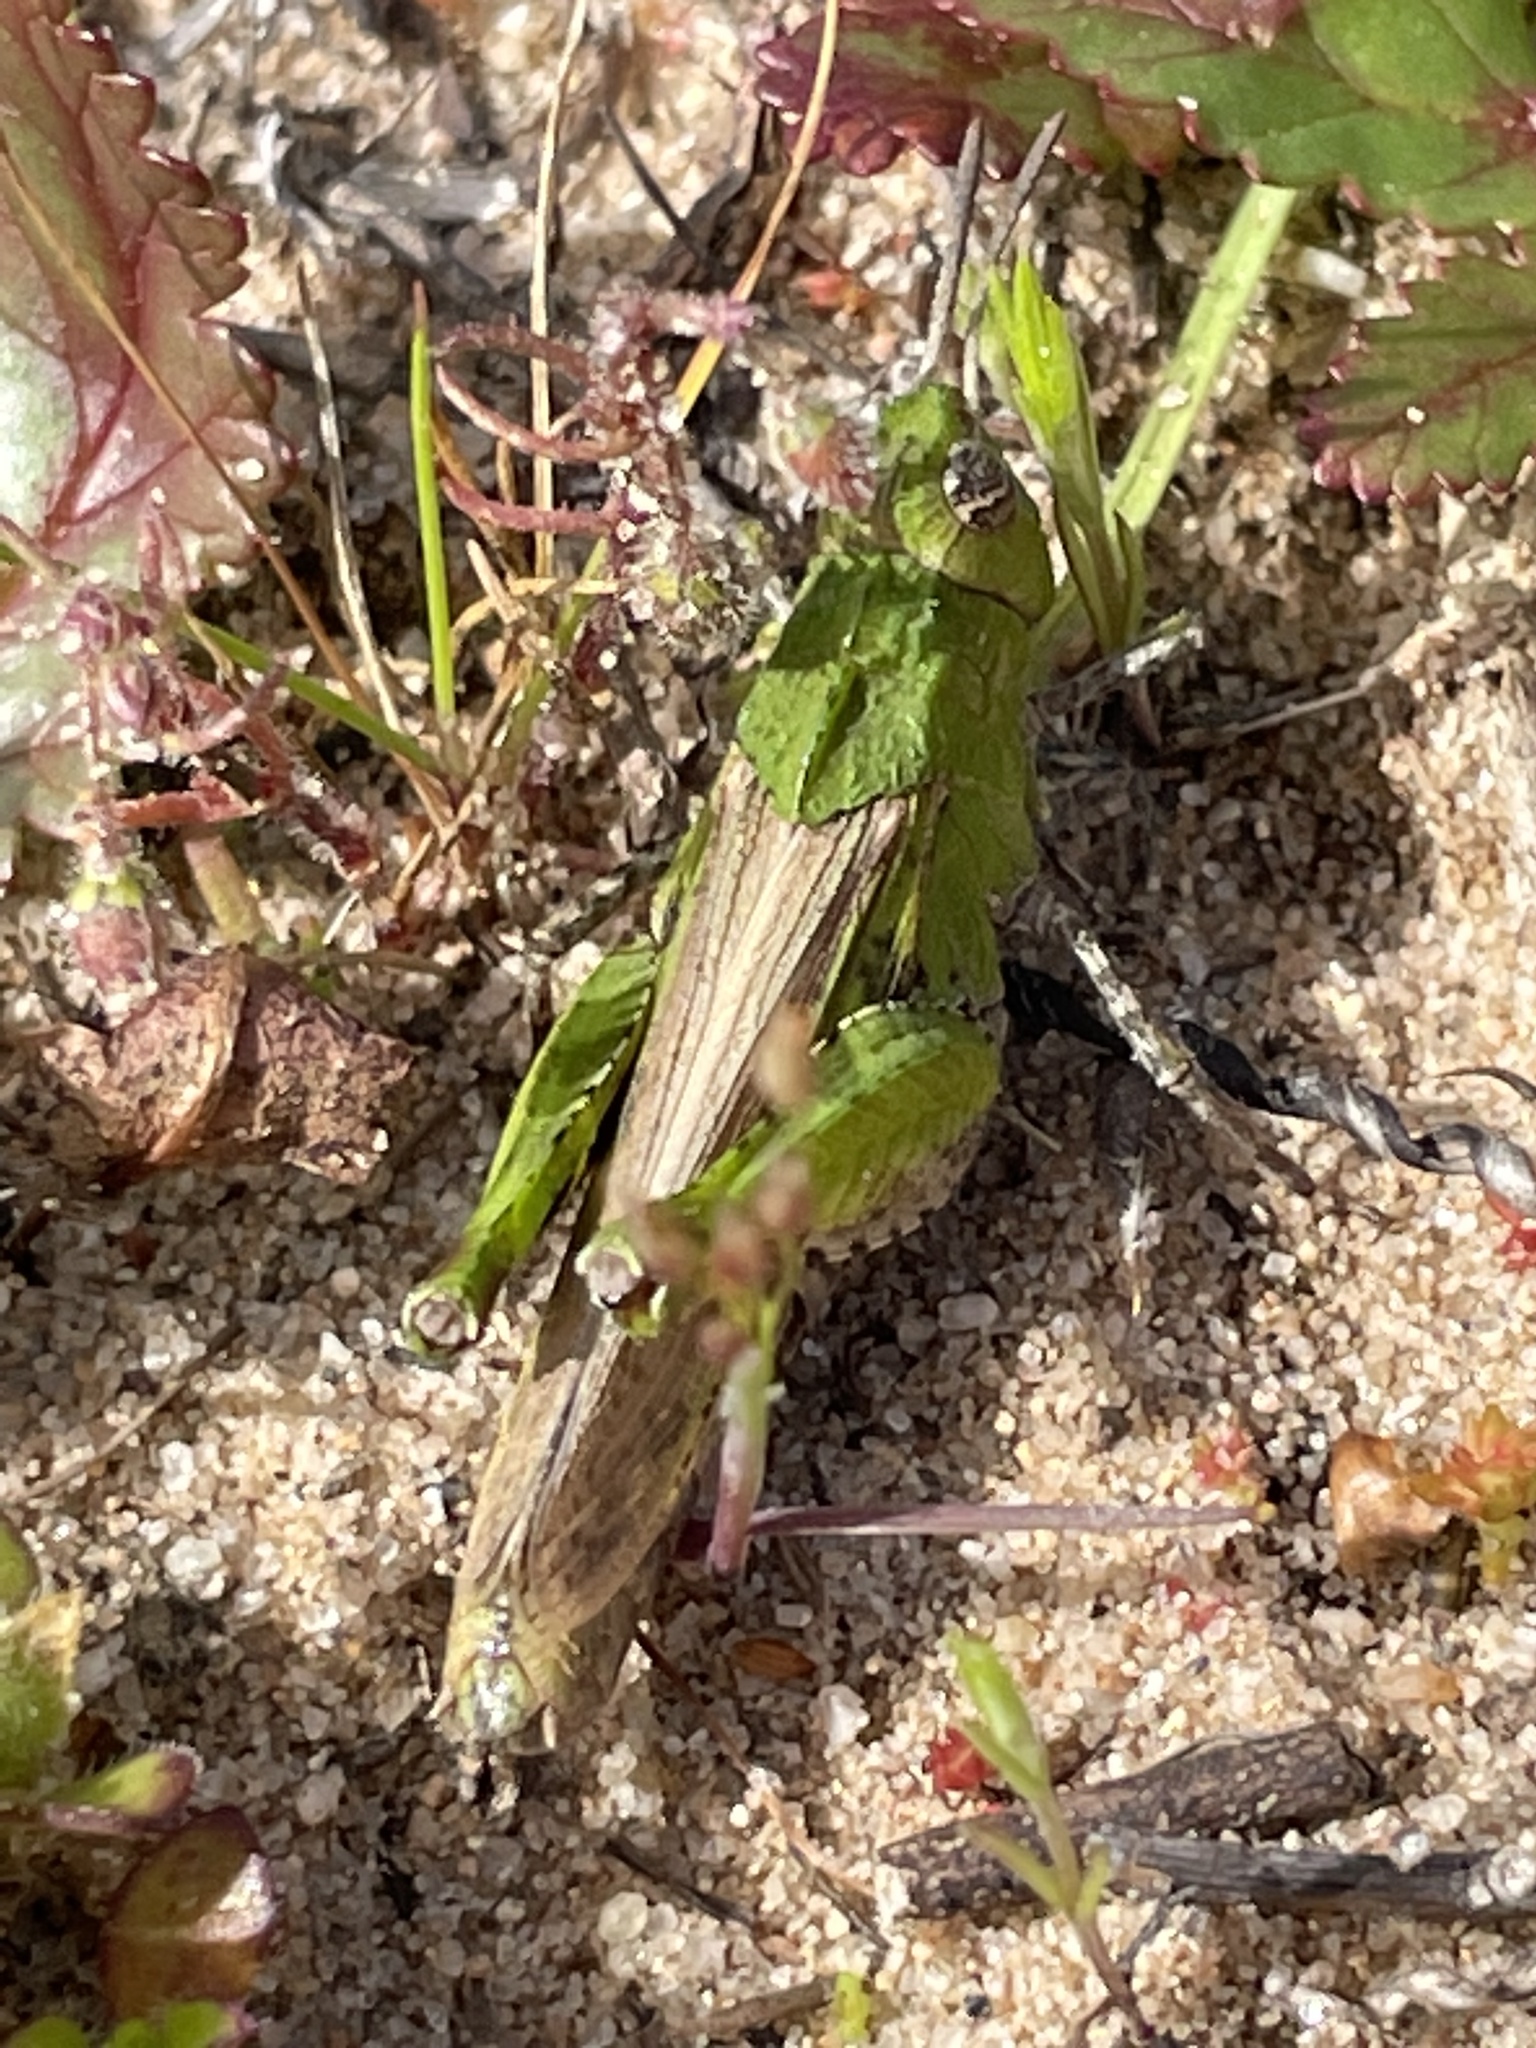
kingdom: Animalia
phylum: Arthropoda
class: Insecta
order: Orthoptera
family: Acrididae
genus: Chimarocephala
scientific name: Chimarocephala pacifica
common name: Painted meadow grasshopper
